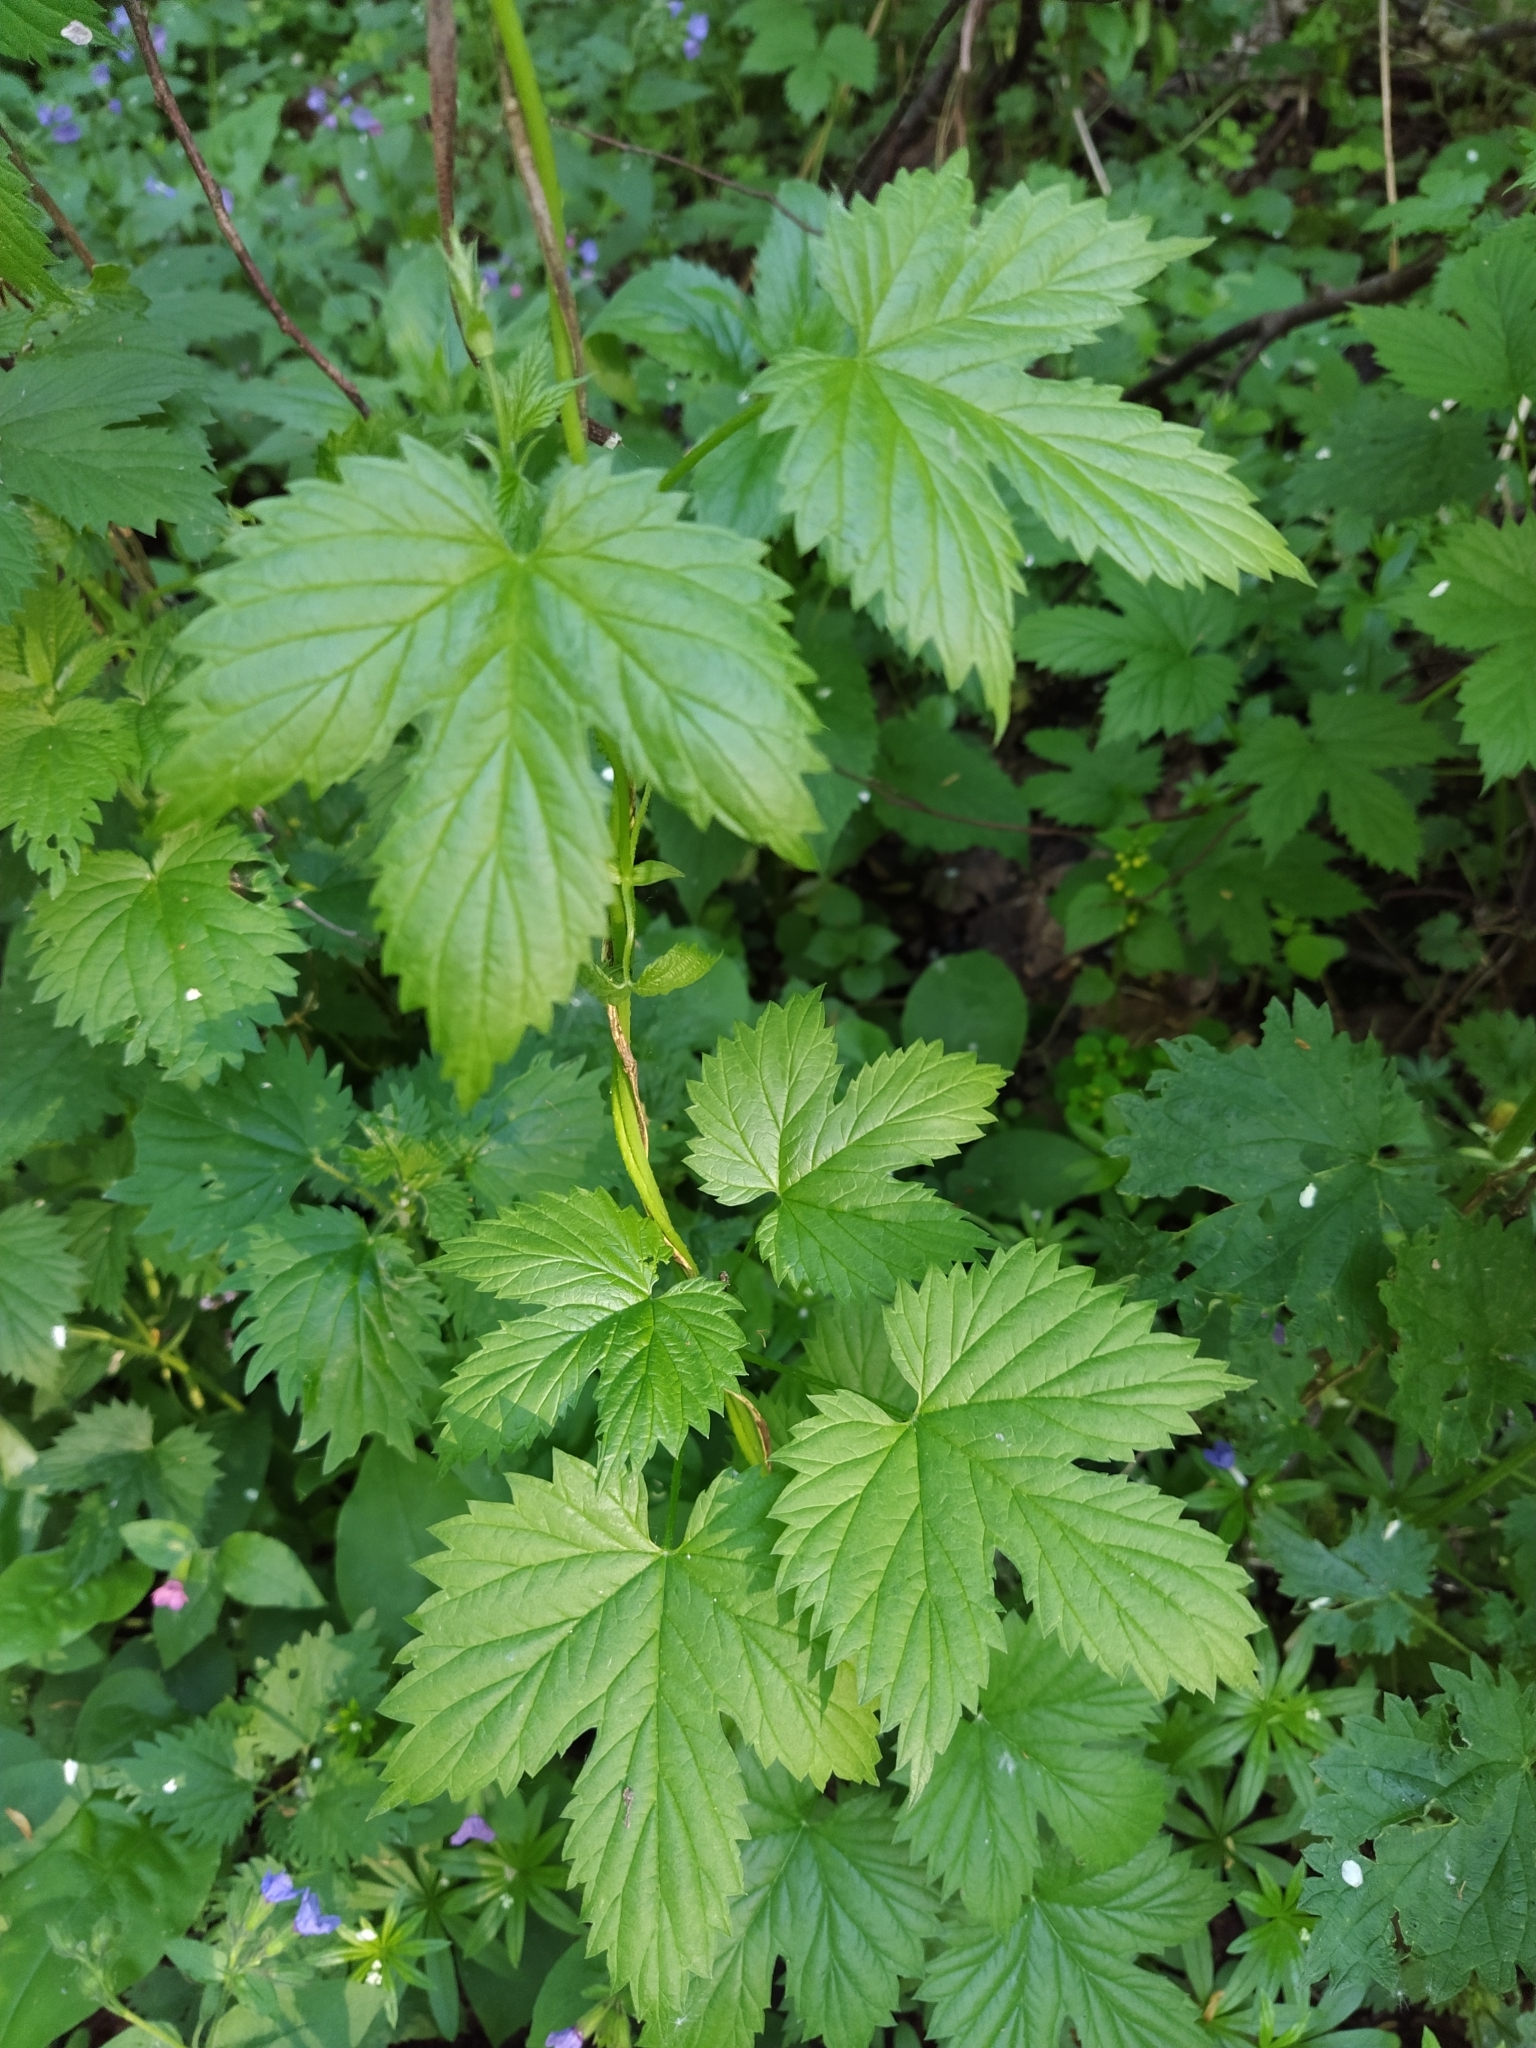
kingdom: Plantae
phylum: Tracheophyta
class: Magnoliopsida
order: Rosales
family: Cannabaceae
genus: Humulus
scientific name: Humulus lupulus
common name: Hop
